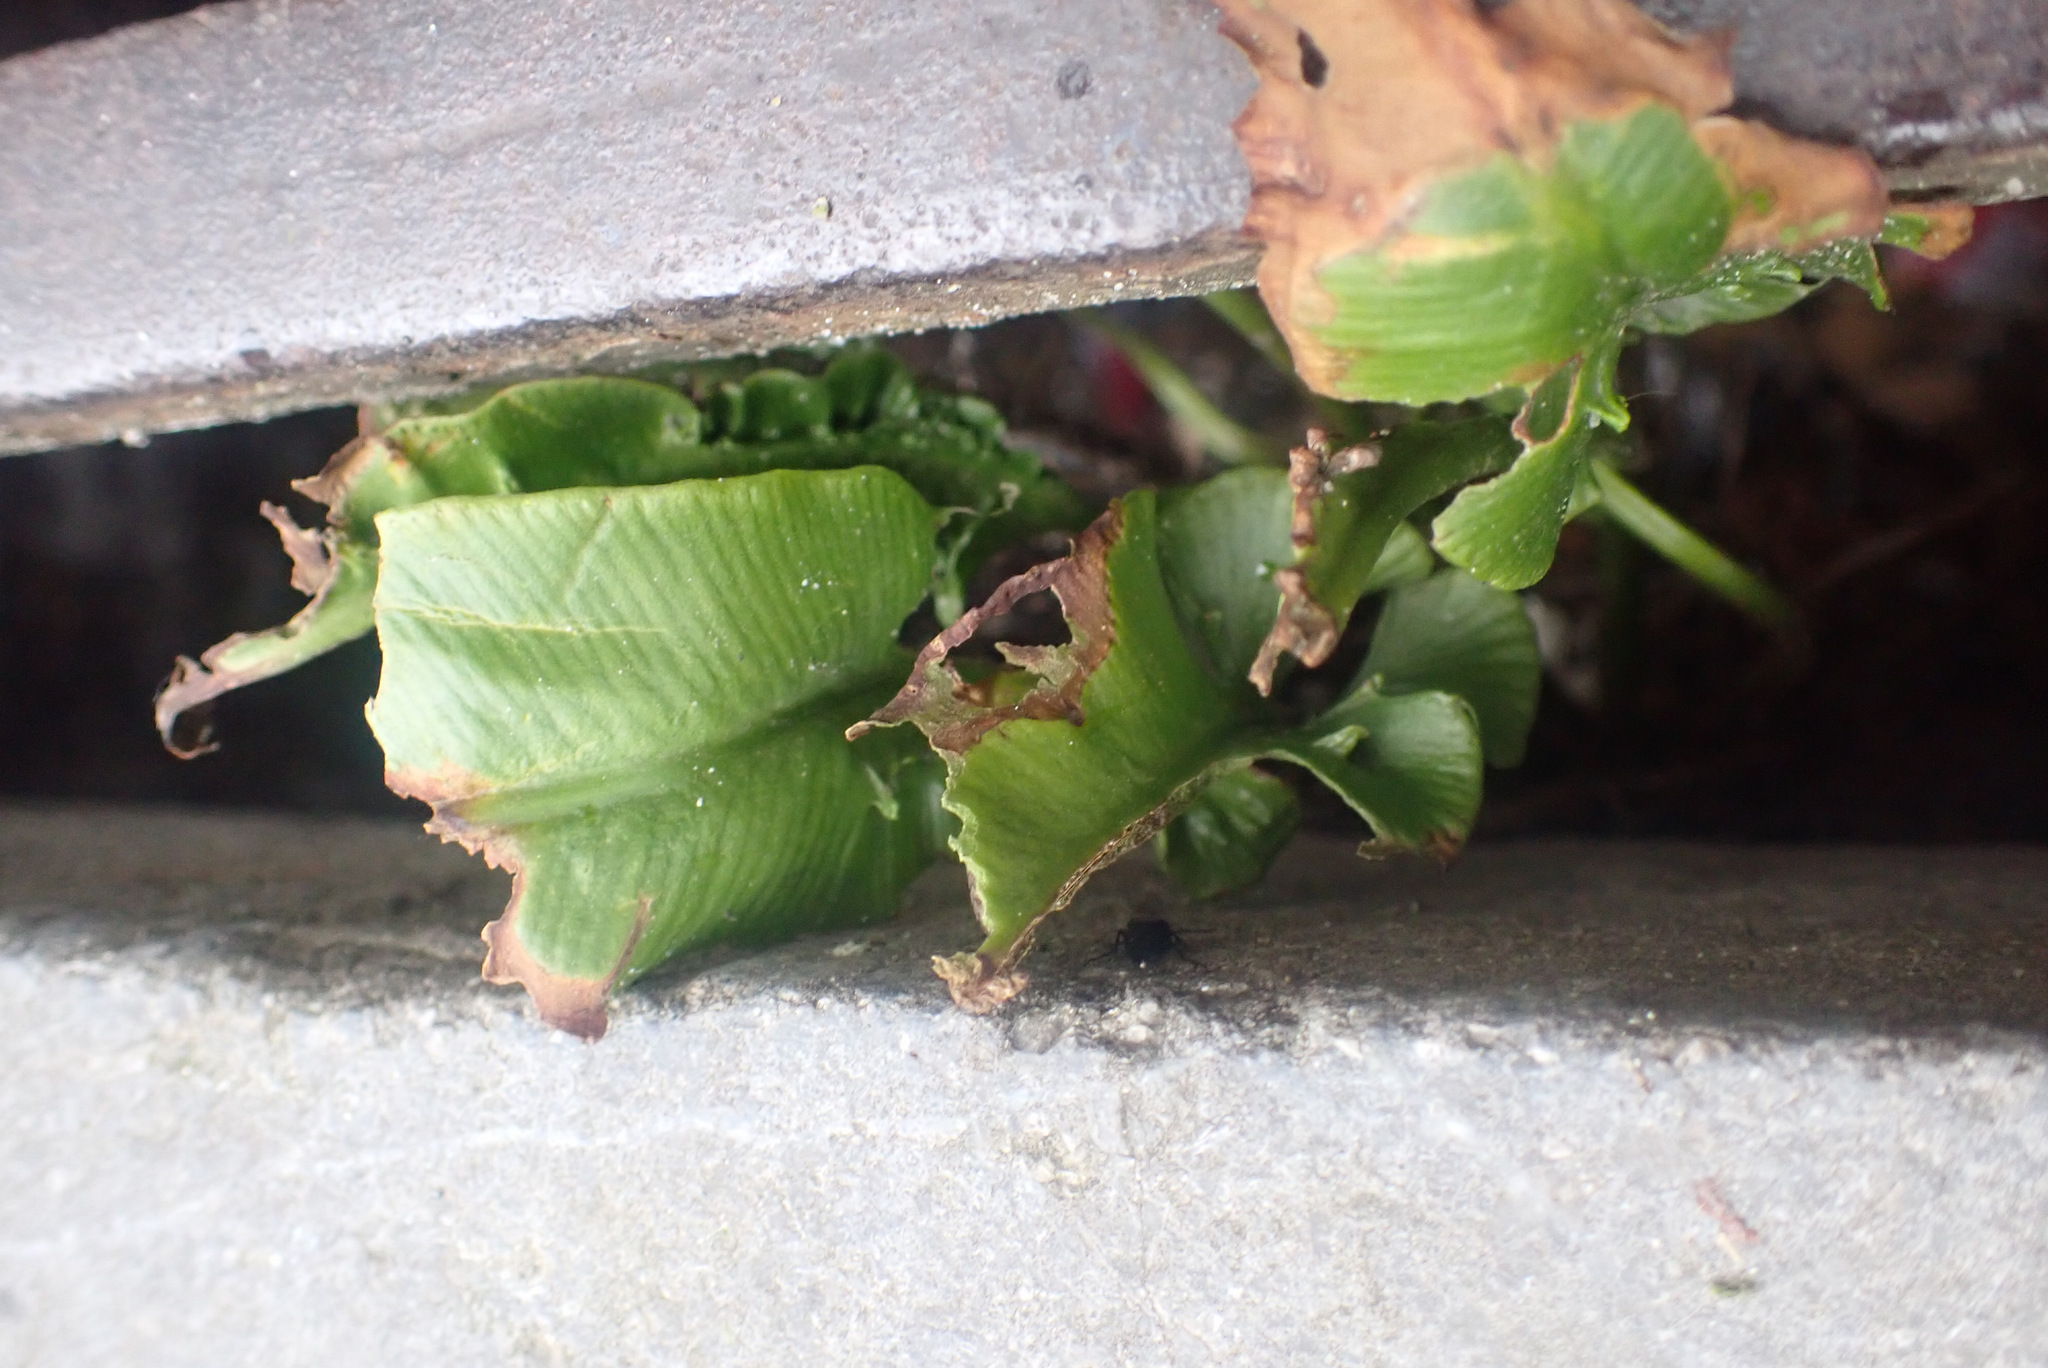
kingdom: Plantae
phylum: Tracheophyta
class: Polypodiopsida
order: Polypodiales
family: Aspleniaceae
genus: Asplenium
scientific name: Asplenium scolopendrium
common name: Hart's-tongue fern
